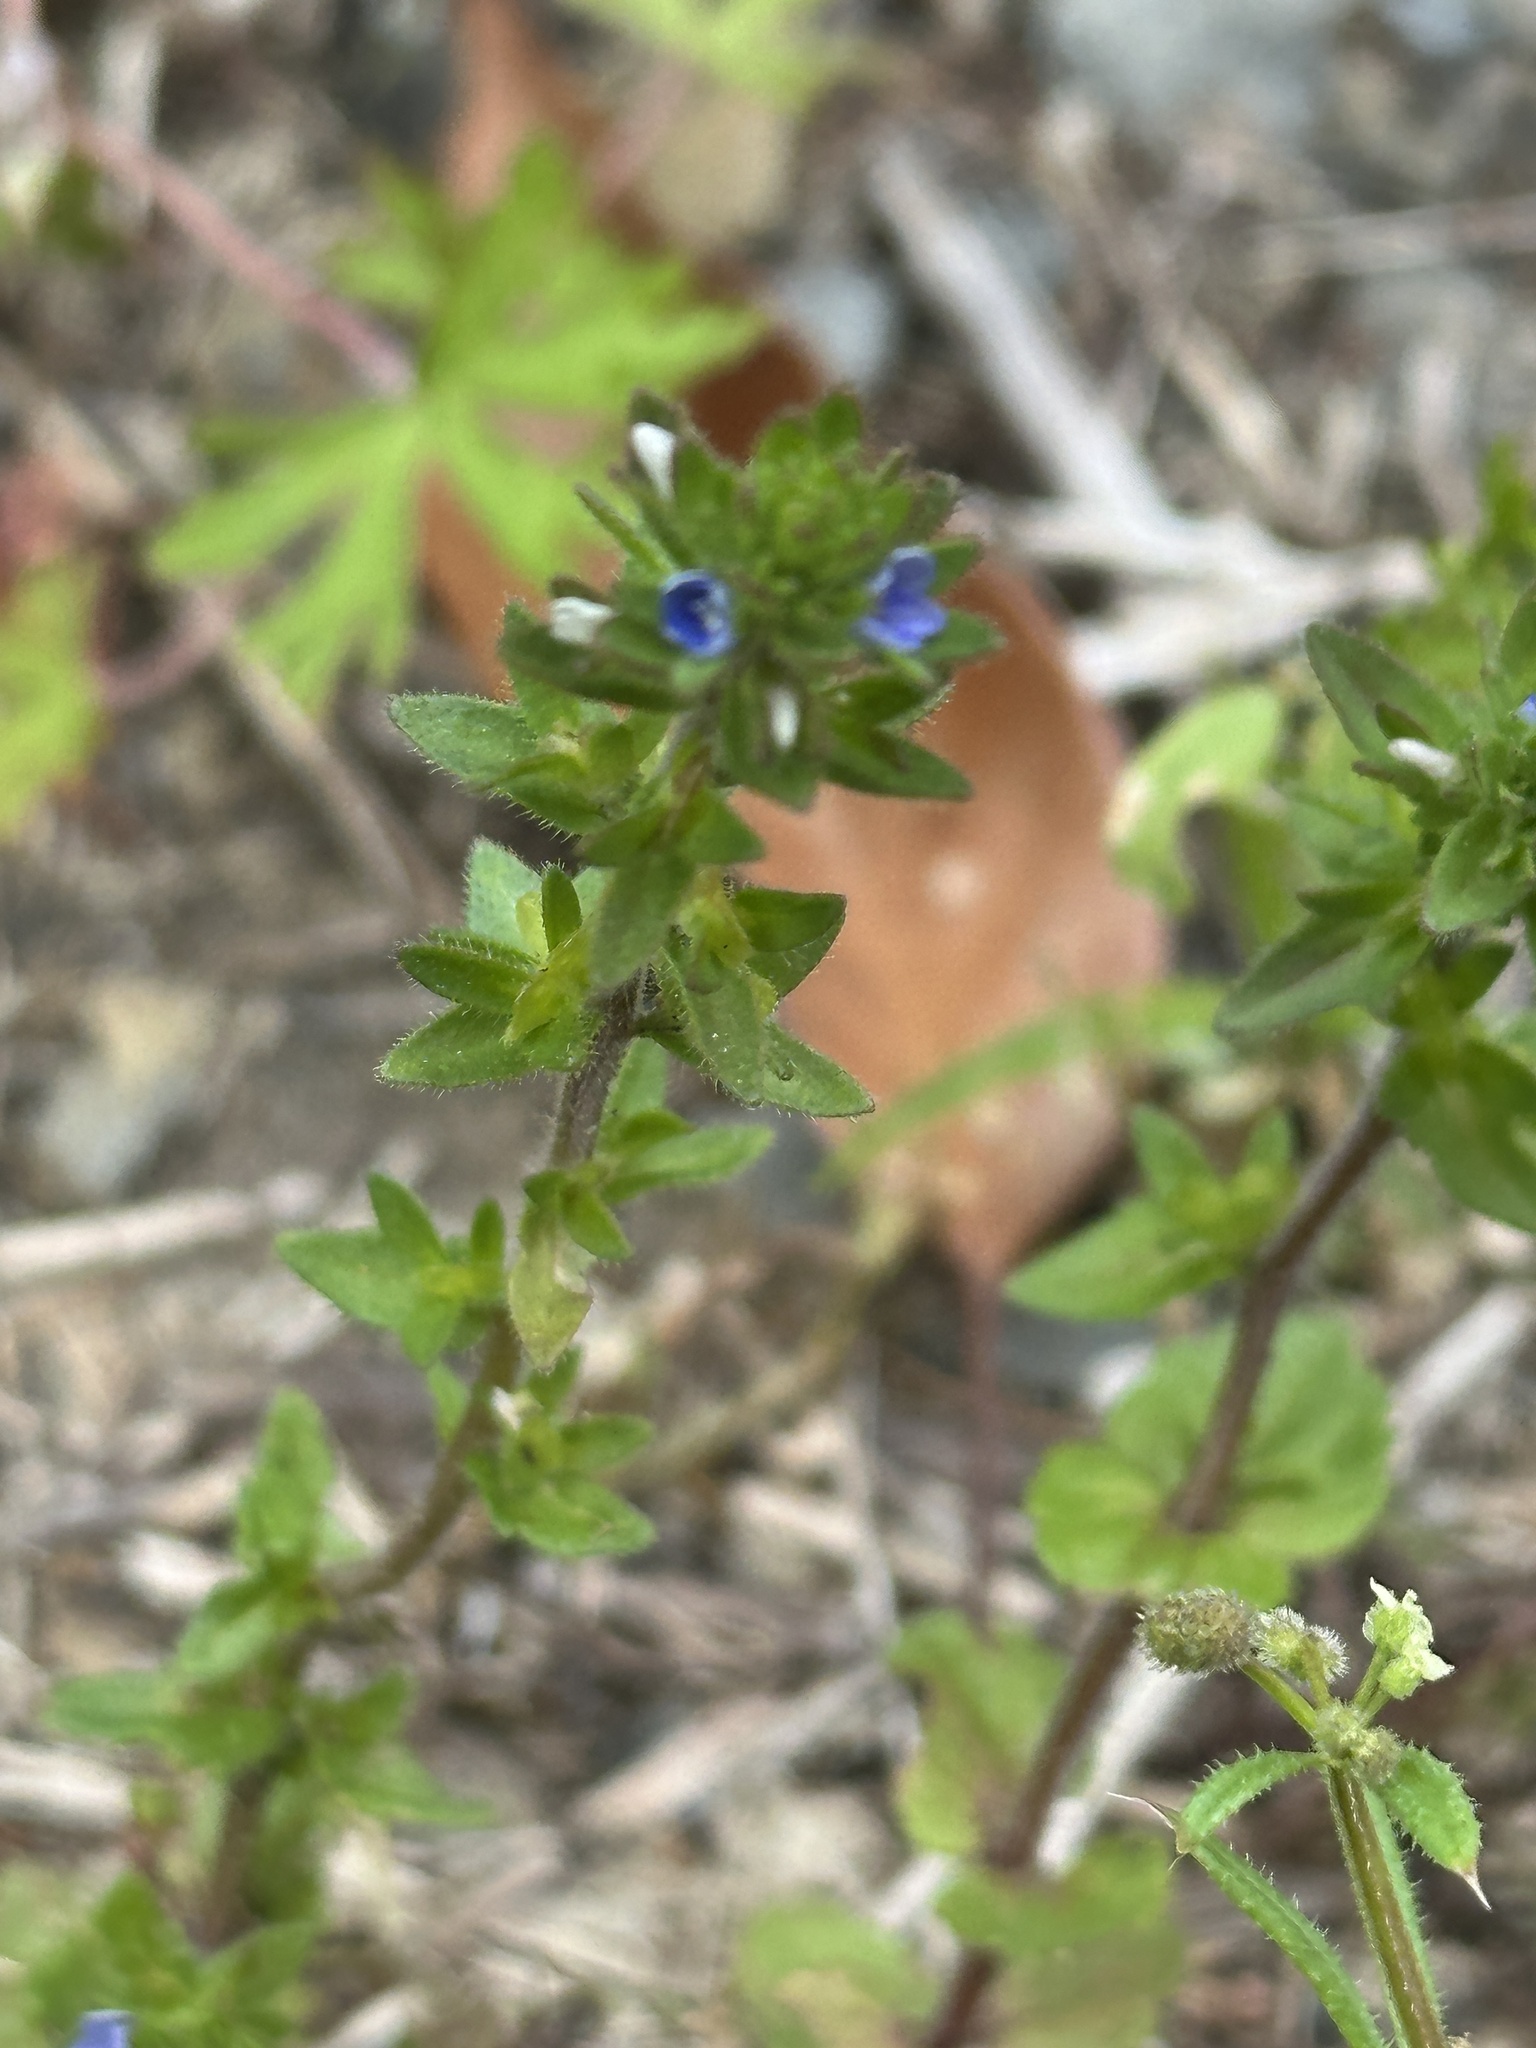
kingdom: Plantae
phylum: Tracheophyta
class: Magnoliopsida
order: Lamiales
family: Plantaginaceae
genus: Veronica
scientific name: Veronica arvensis
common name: Corn speedwell
